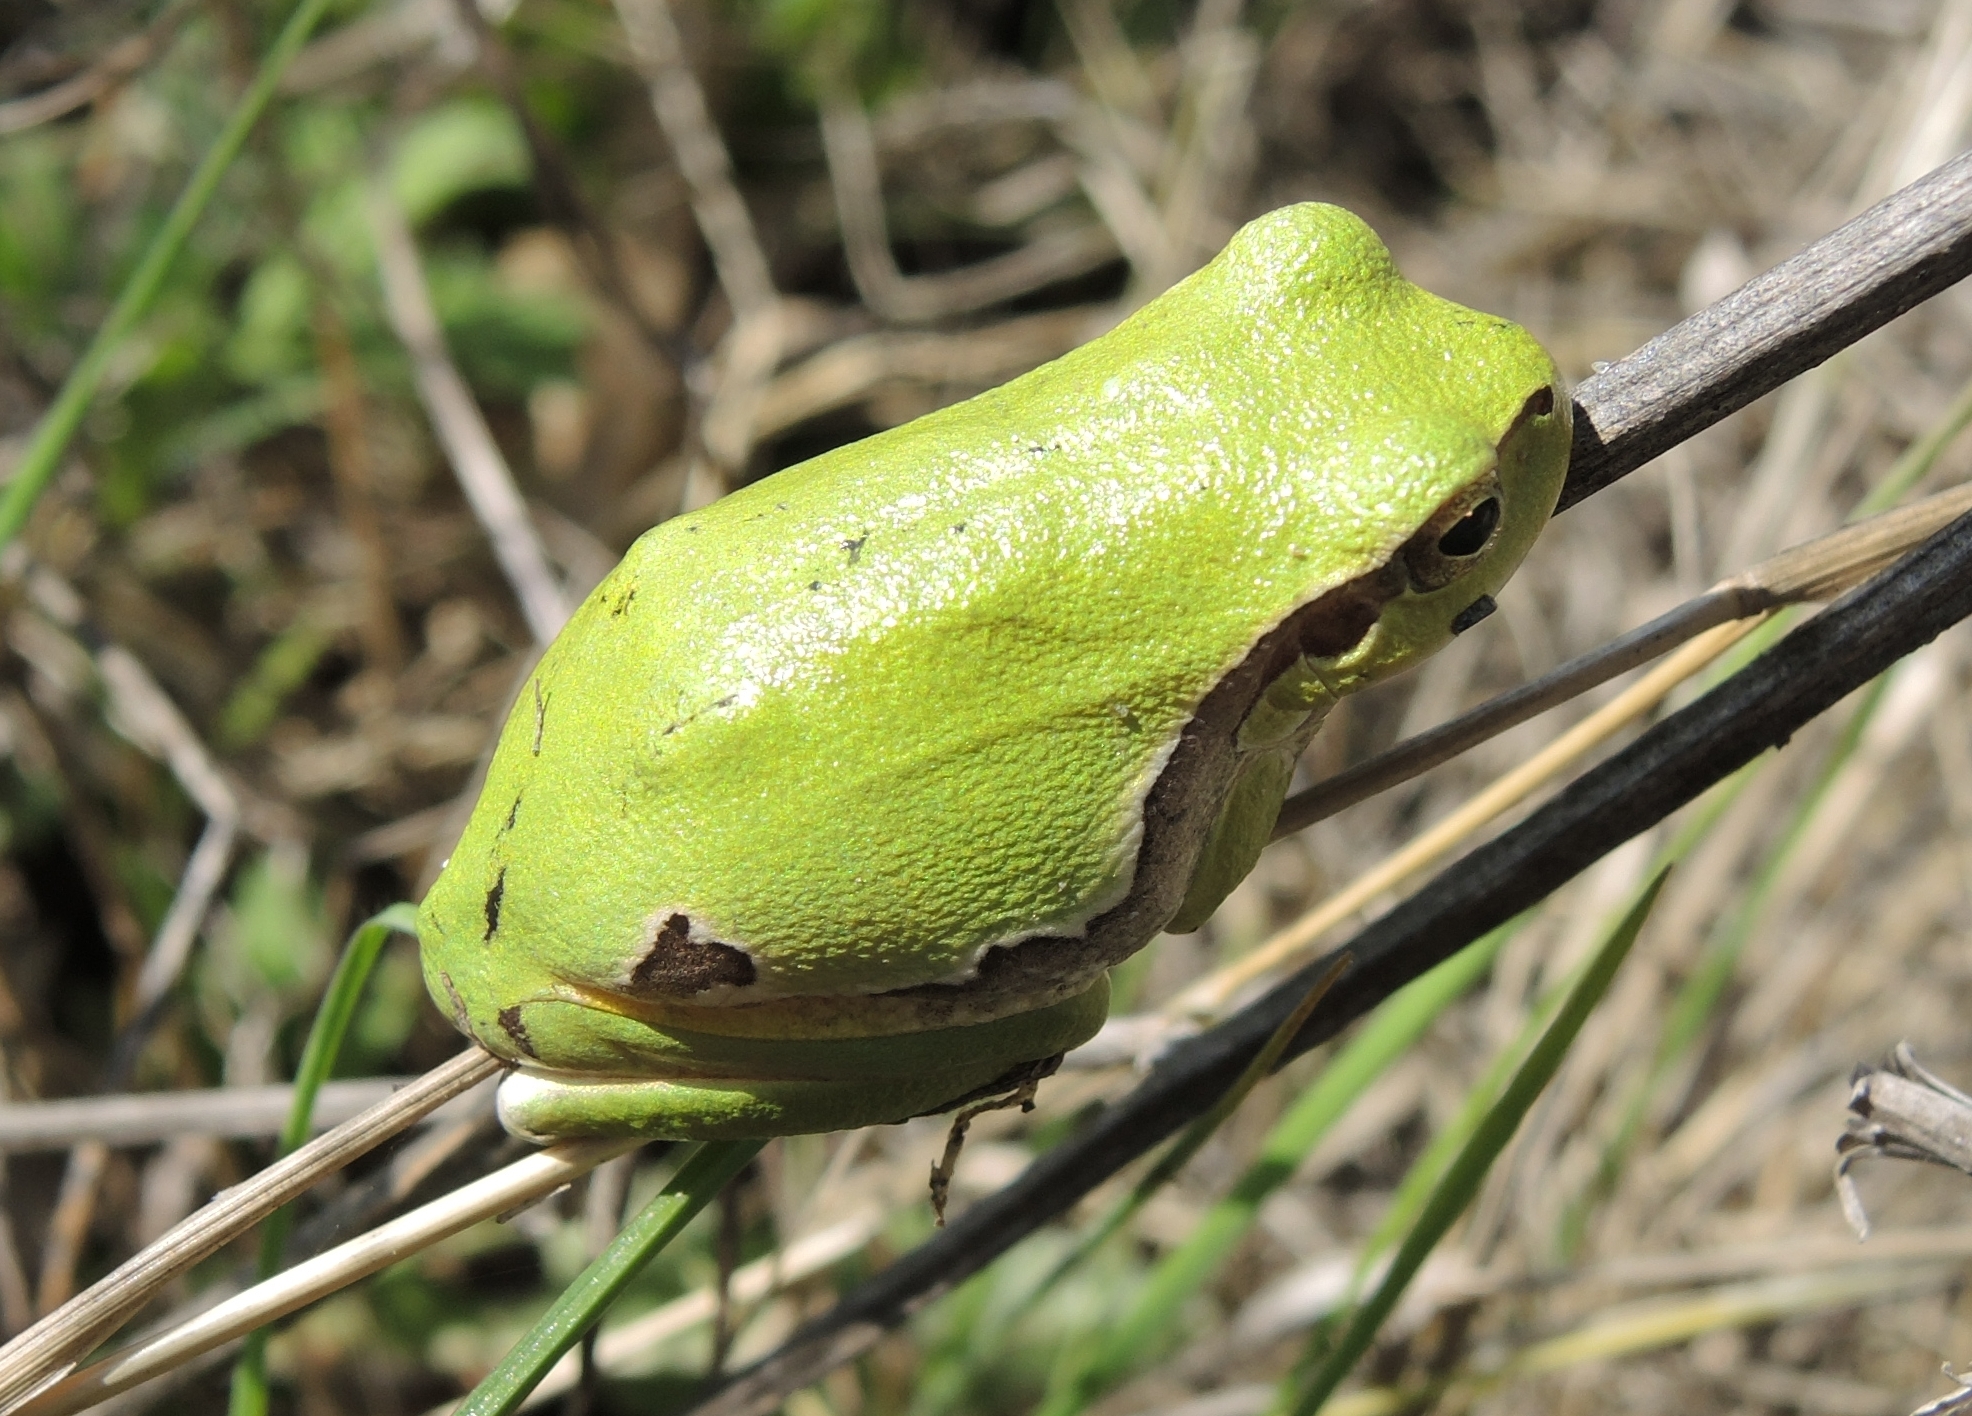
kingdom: Animalia
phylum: Chordata
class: Amphibia
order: Anura
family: Hylidae
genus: Hyla
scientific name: Hyla orientalis
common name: Caucasian treefrog
